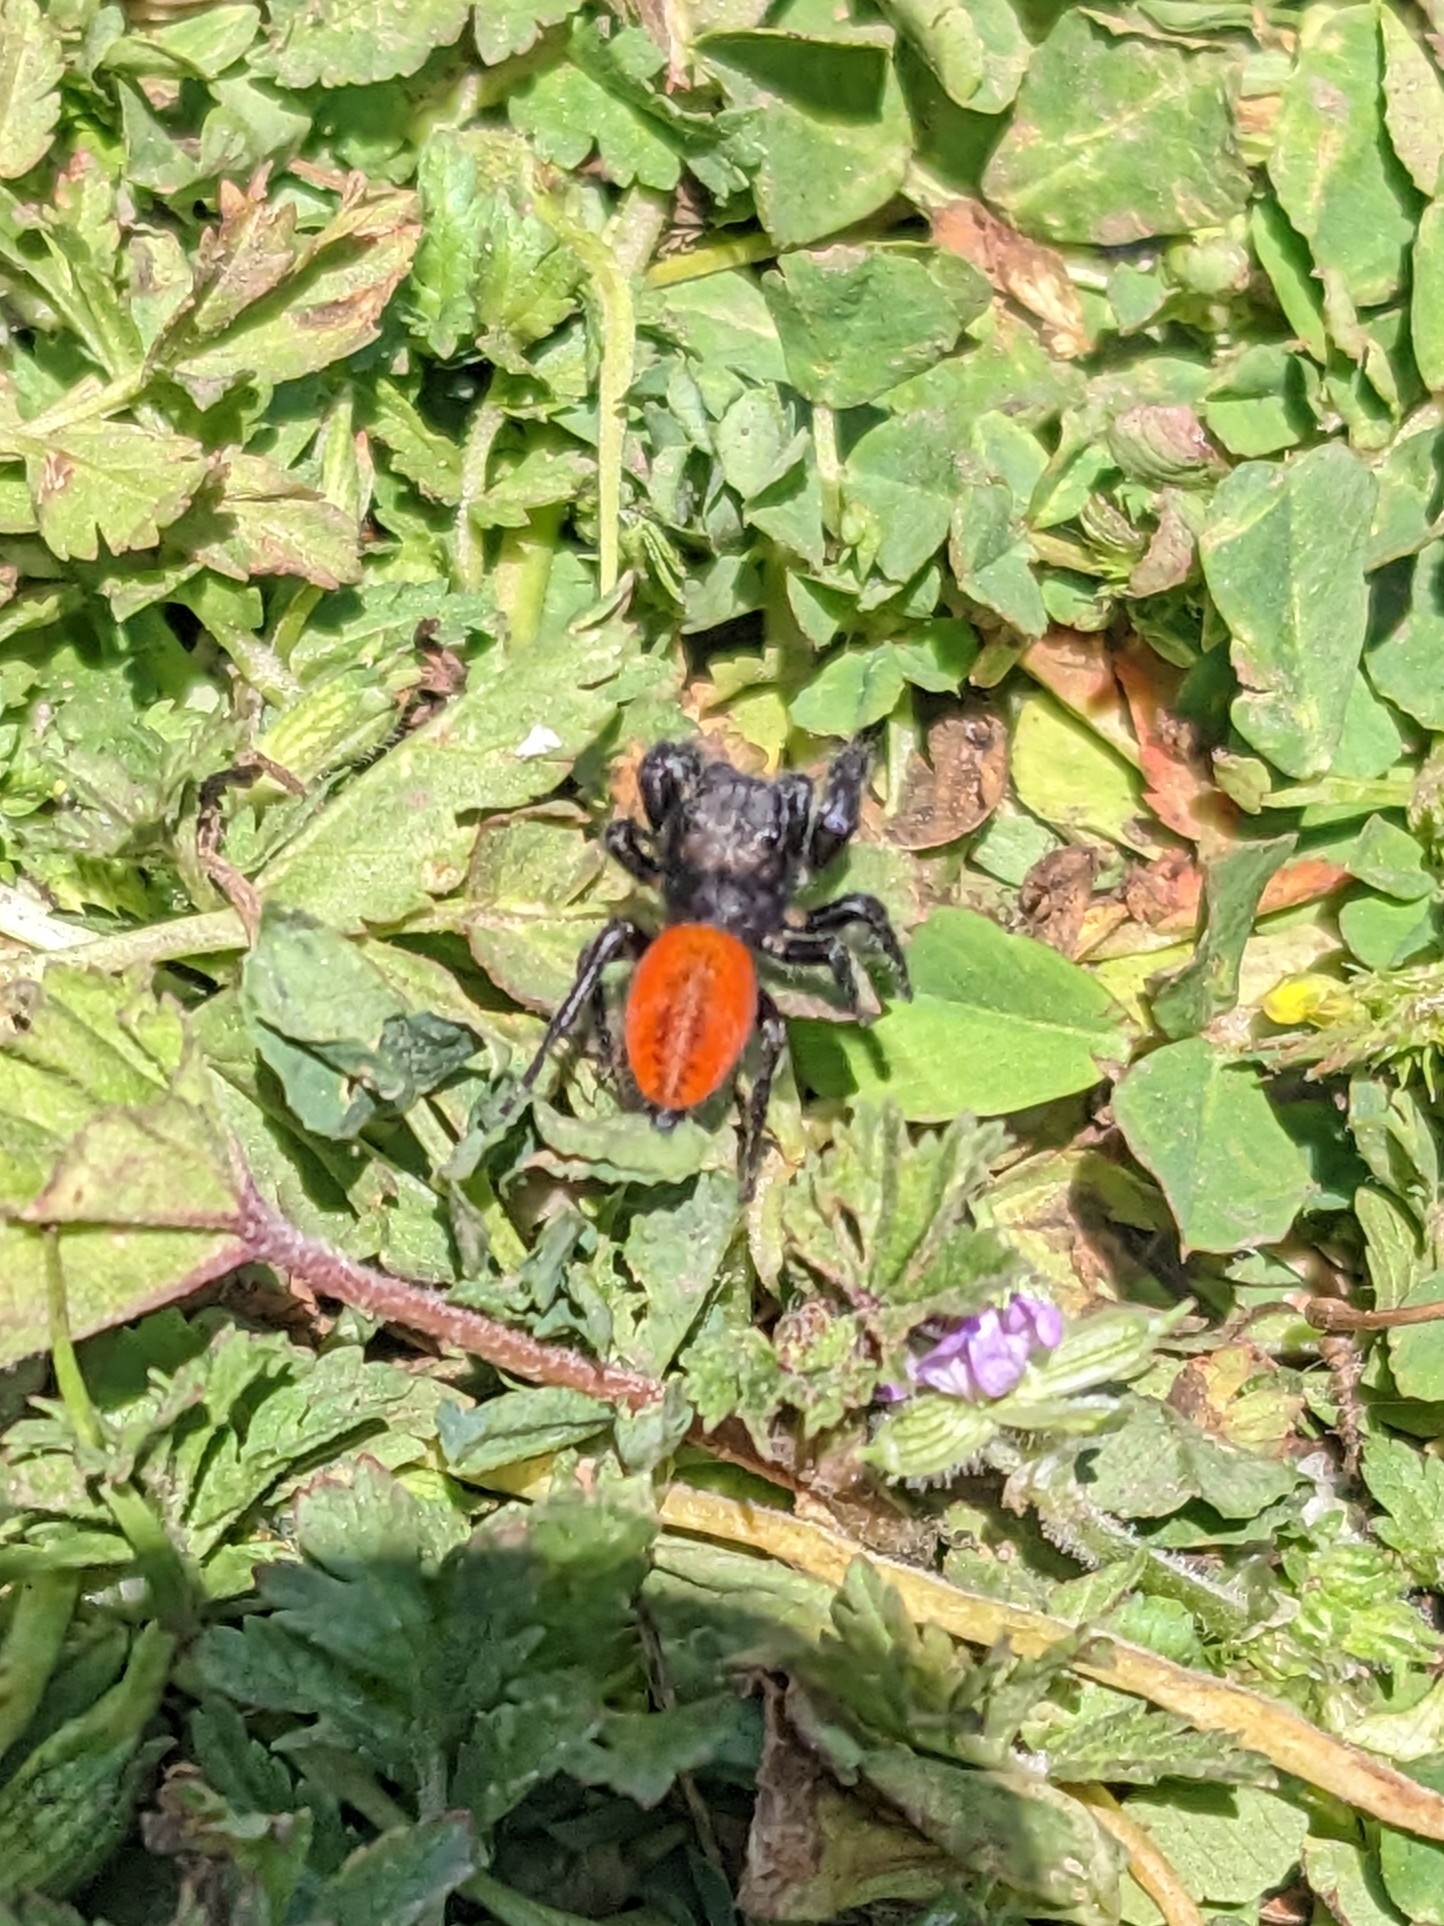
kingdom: Animalia
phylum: Arthropoda
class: Arachnida
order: Araneae
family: Salticidae
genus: Phidippus
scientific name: Phidippus johnsoni
